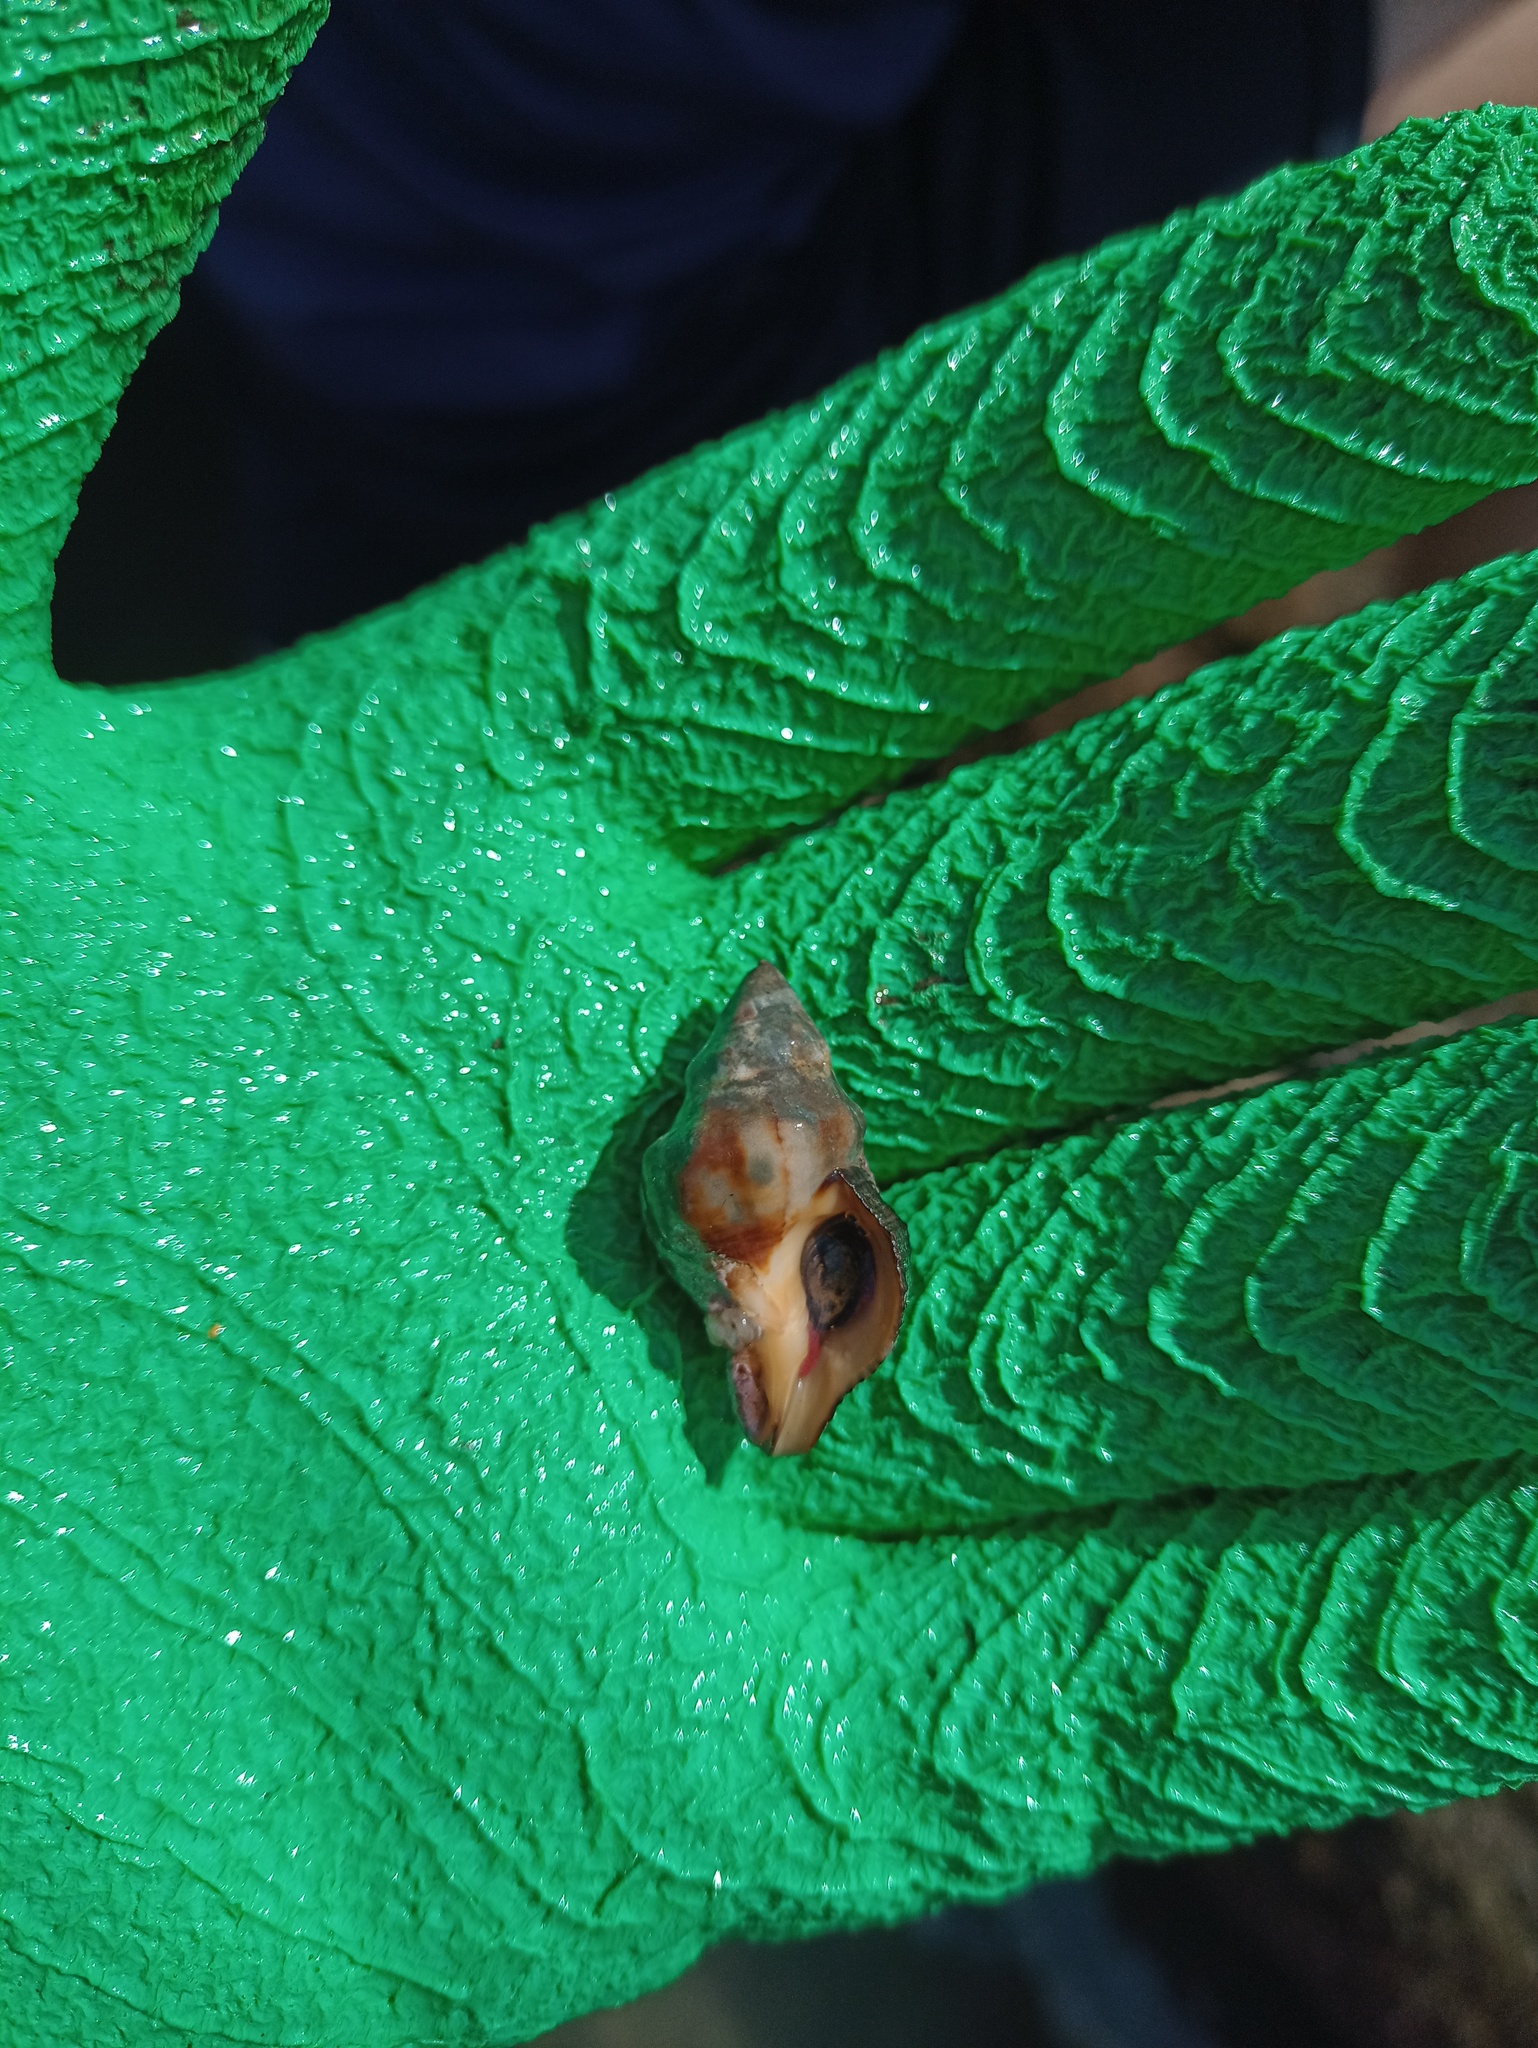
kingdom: Animalia
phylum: Mollusca
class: Gastropoda
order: Neogastropoda
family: Fasciolariidae
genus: Leucozonia
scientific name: Leucozonia nassa
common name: Chestnut latirus
